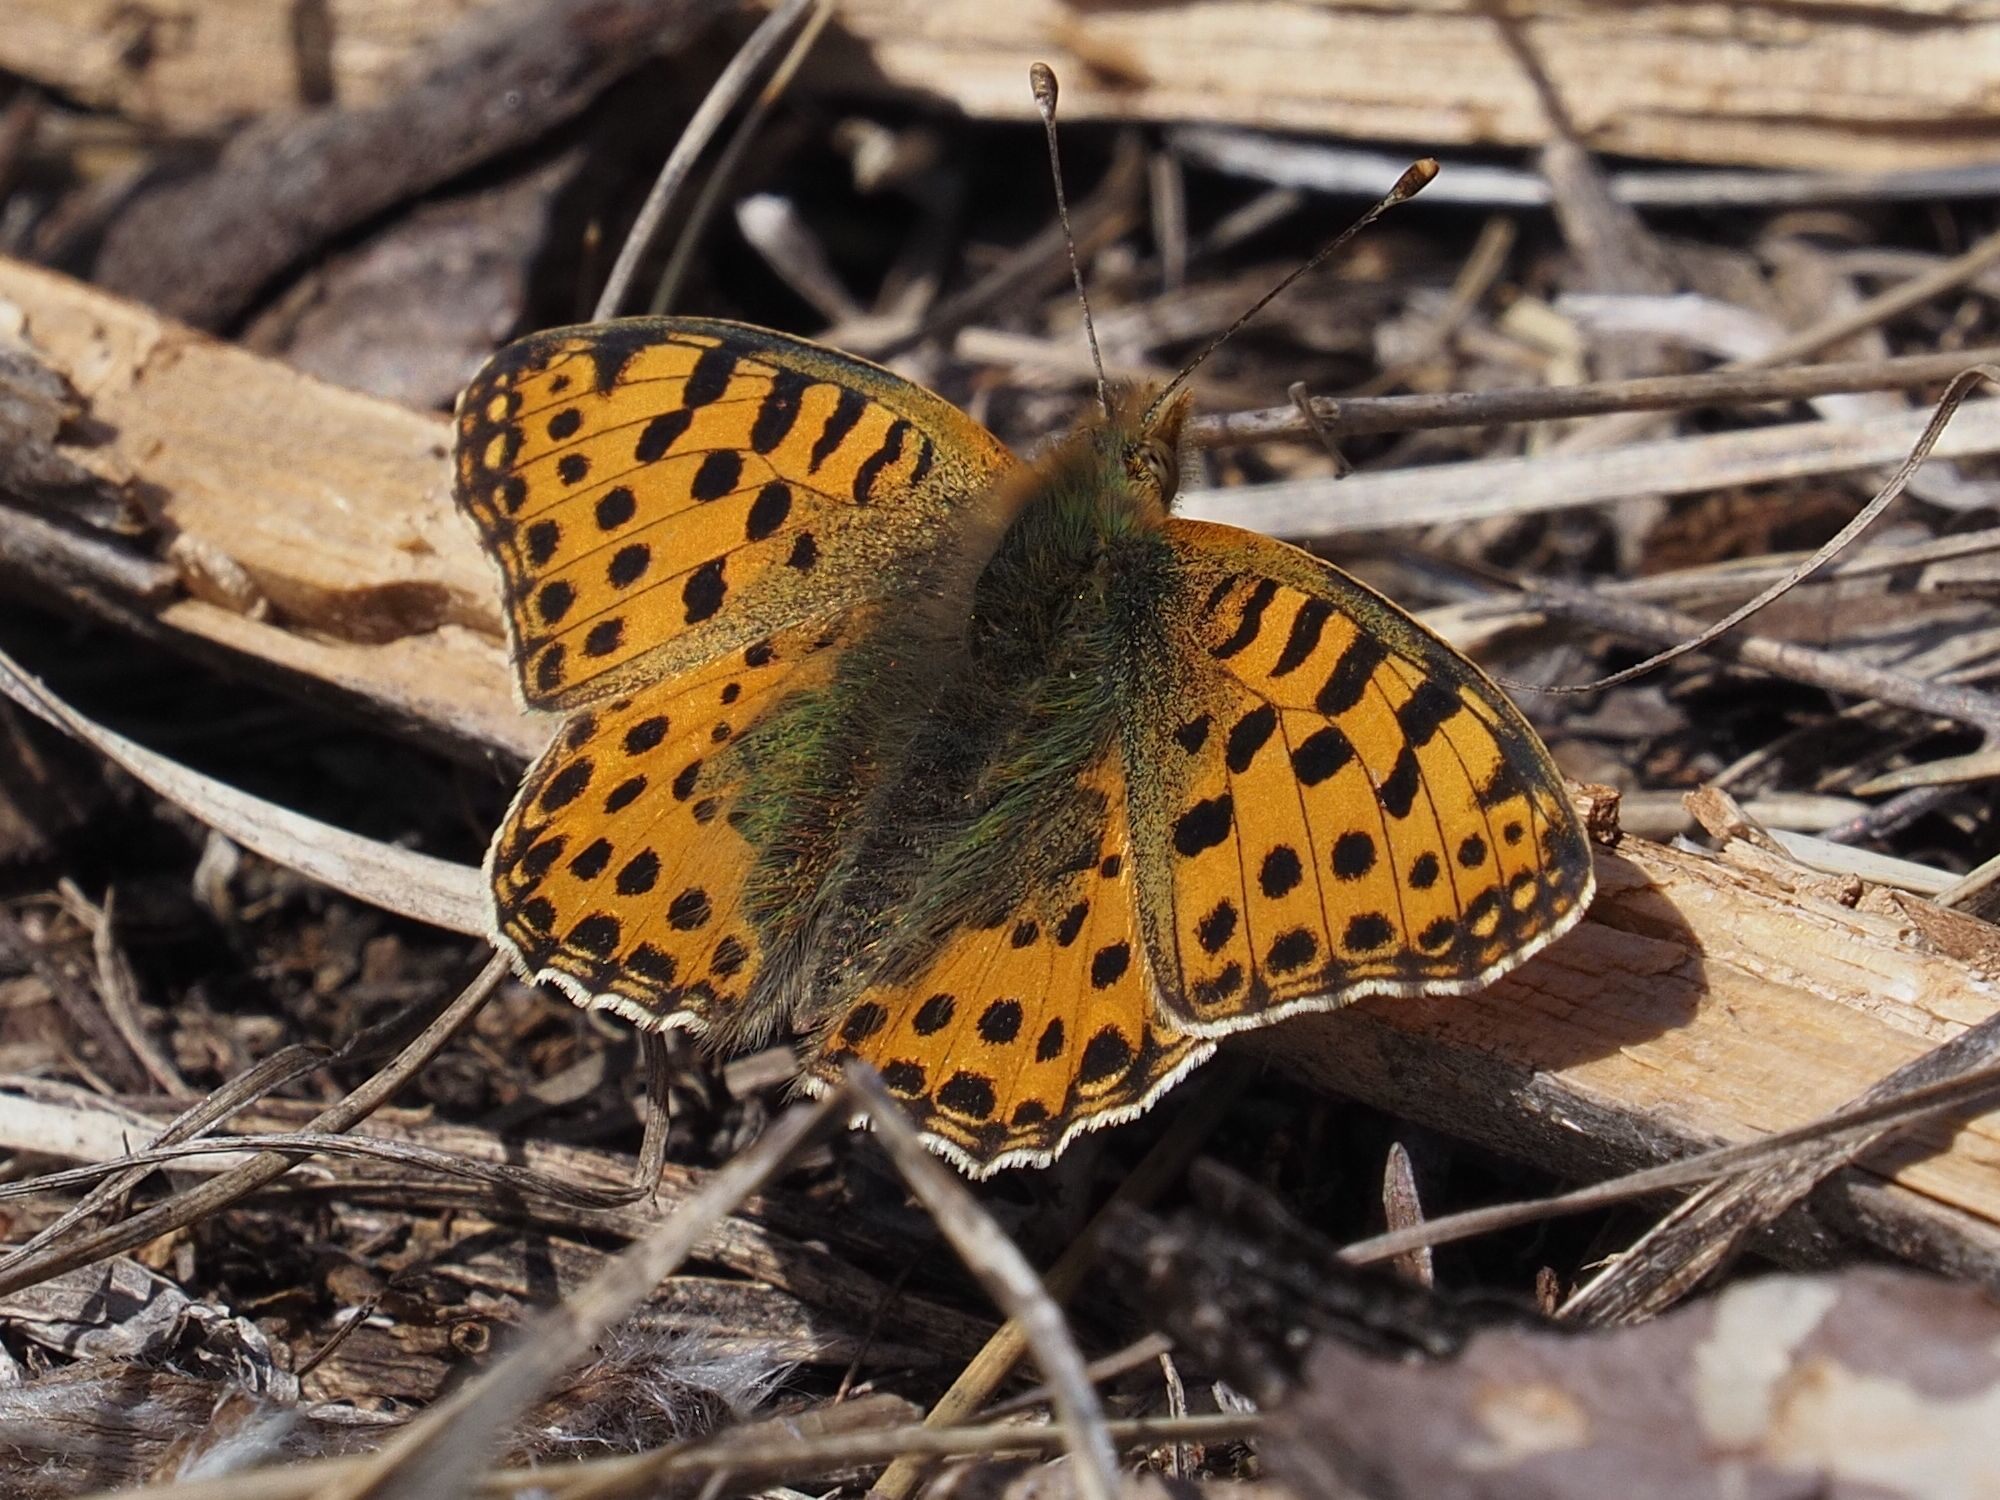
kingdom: Animalia
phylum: Arthropoda
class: Insecta
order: Lepidoptera
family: Nymphalidae
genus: Issoria
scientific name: Issoria lathonia
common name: Queen of spain fritillary
